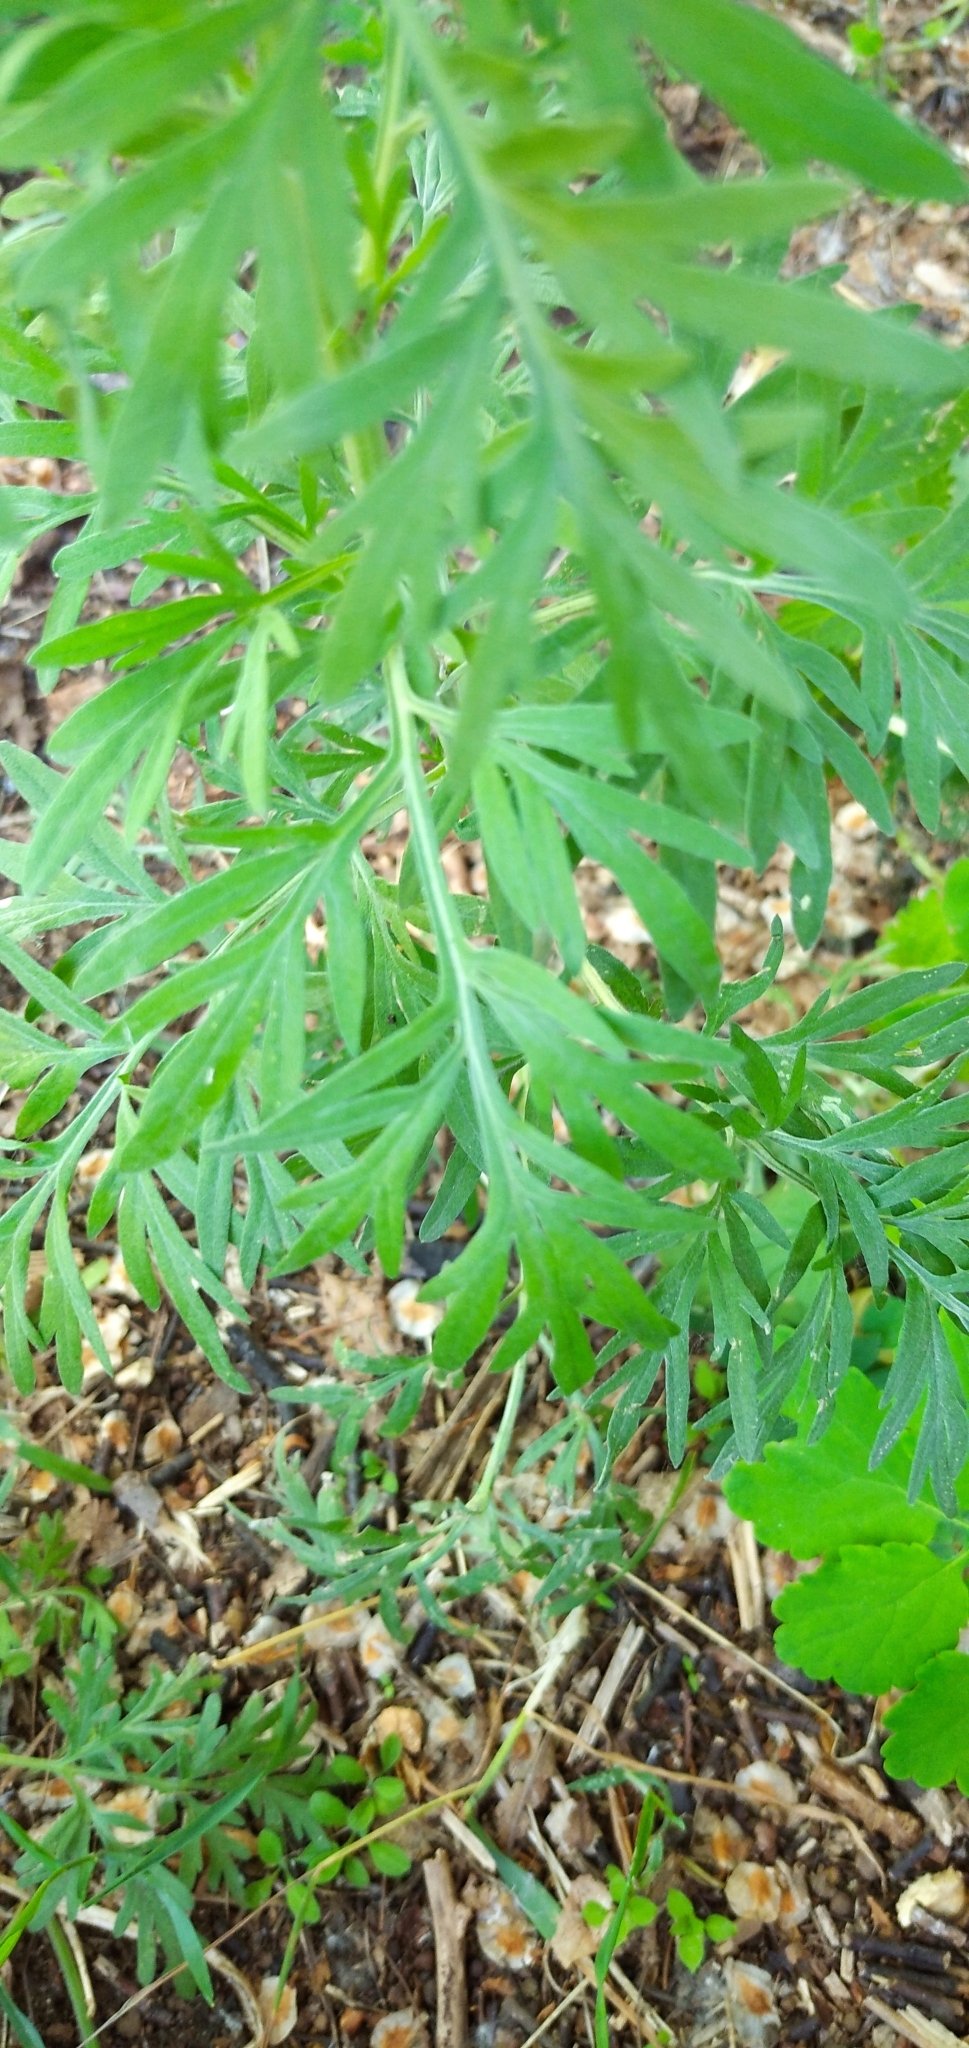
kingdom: Plantae
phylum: Tracheophyta
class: Magnoliopsida
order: Asterales
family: Asteraceae
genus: Artemisia
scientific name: Artemisia absinthium
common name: Wormwood
